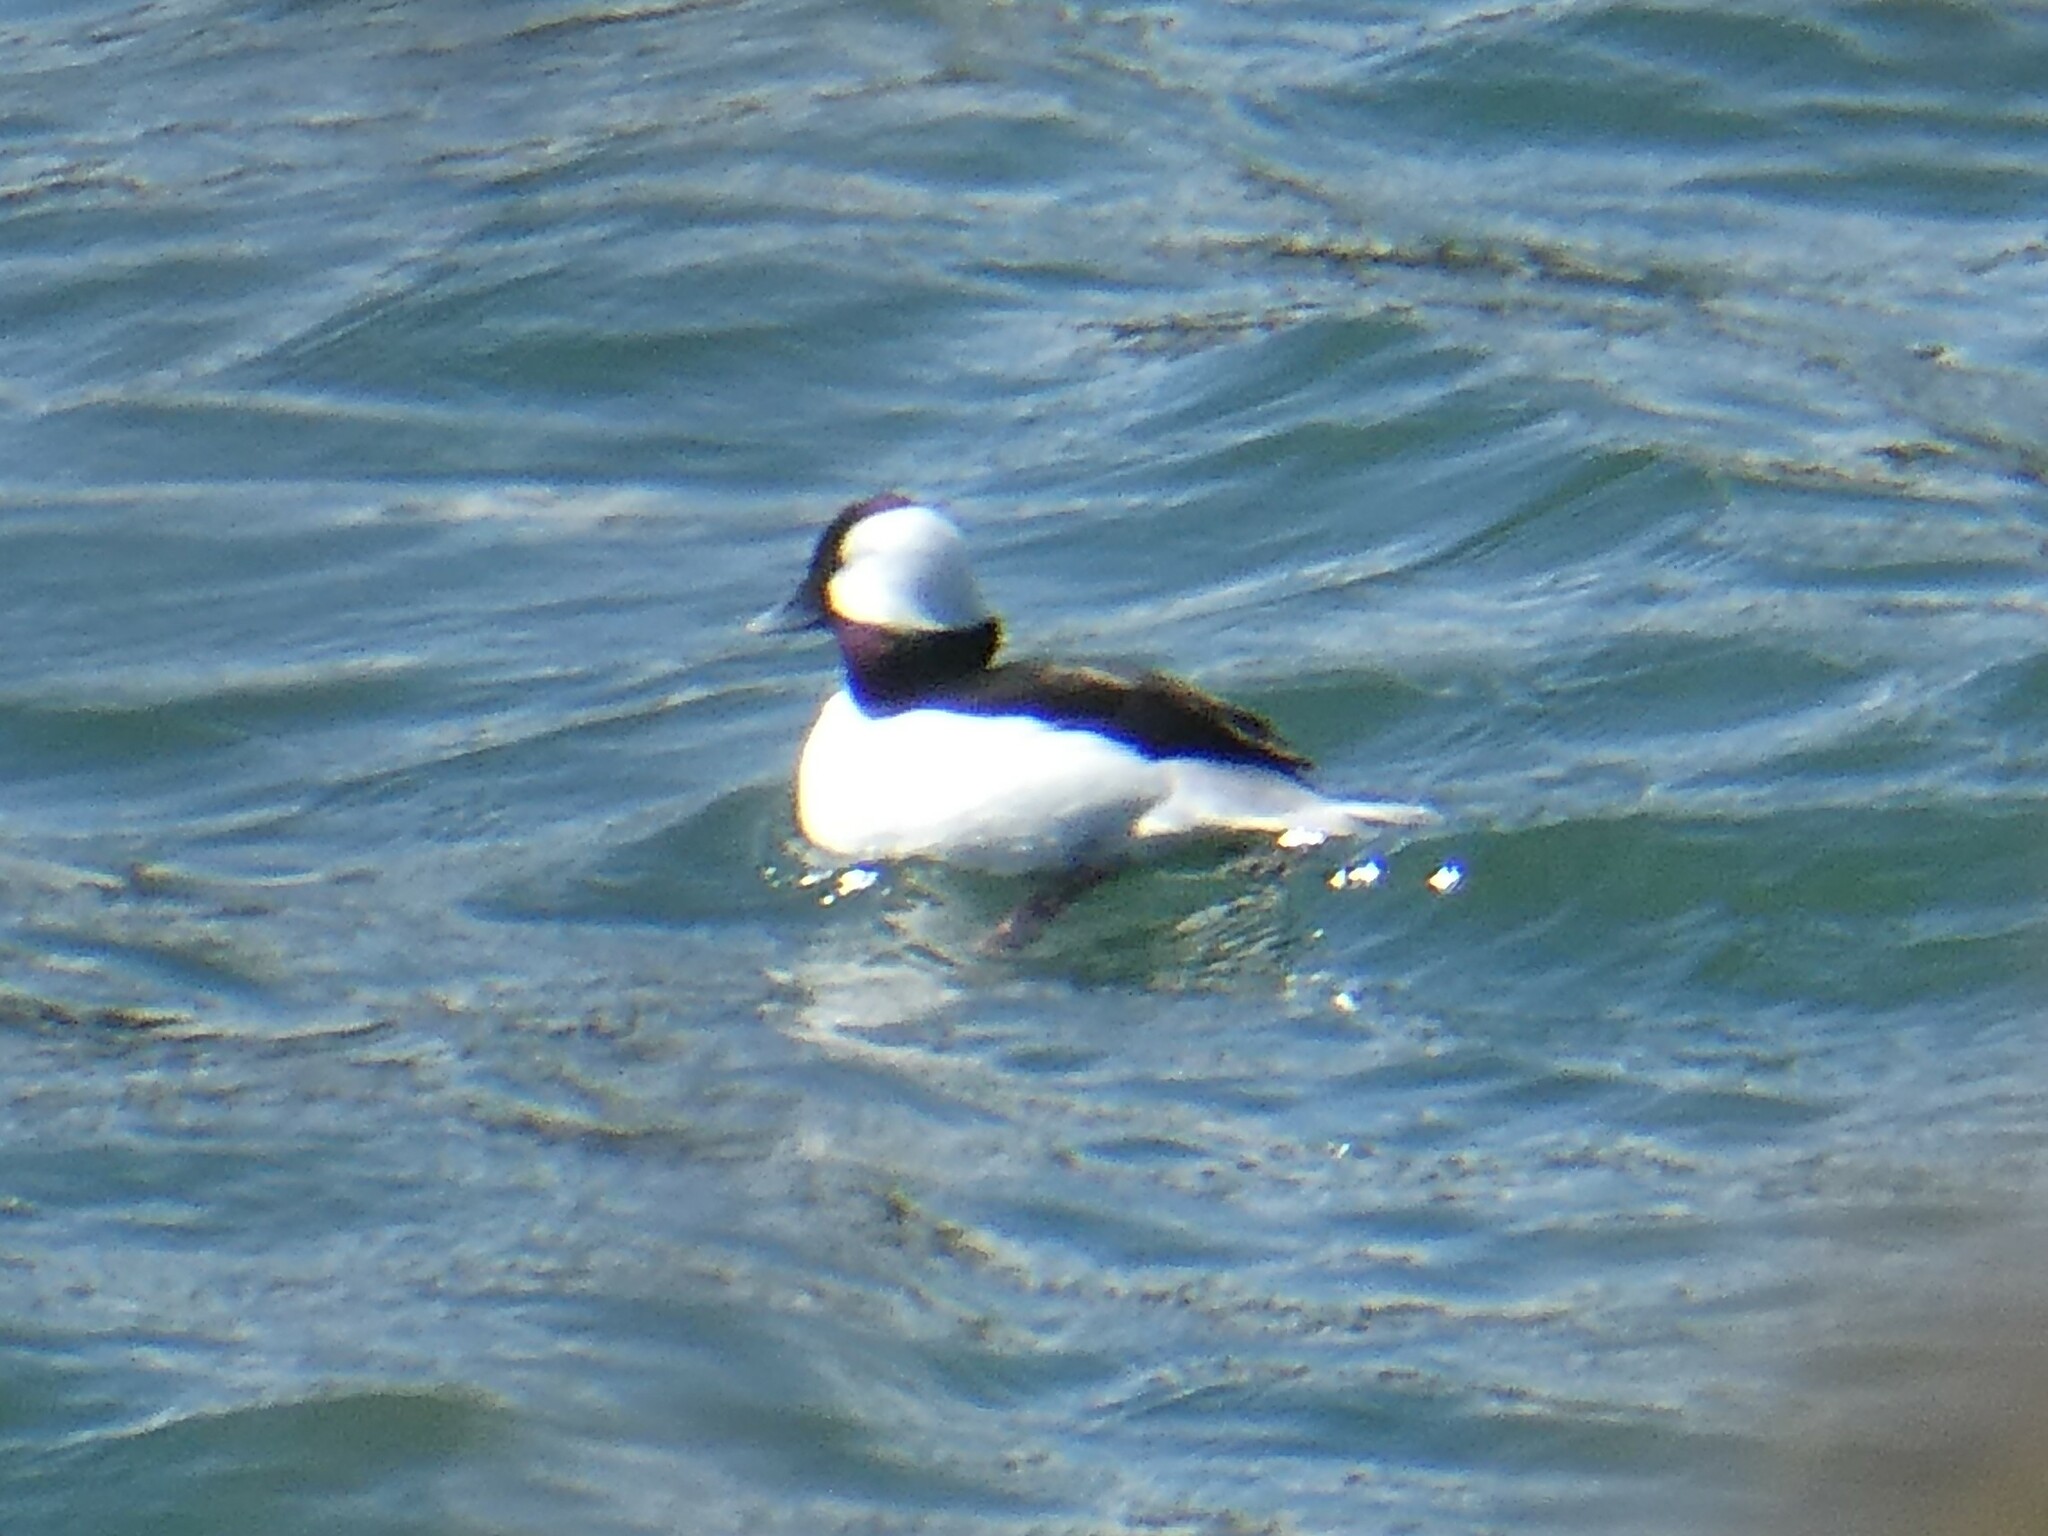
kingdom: Animalia
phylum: Chordata
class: Aves
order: Anseriformes
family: Anatidae
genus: Bucephala
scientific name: Bucephala albeola
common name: Bufflehead
